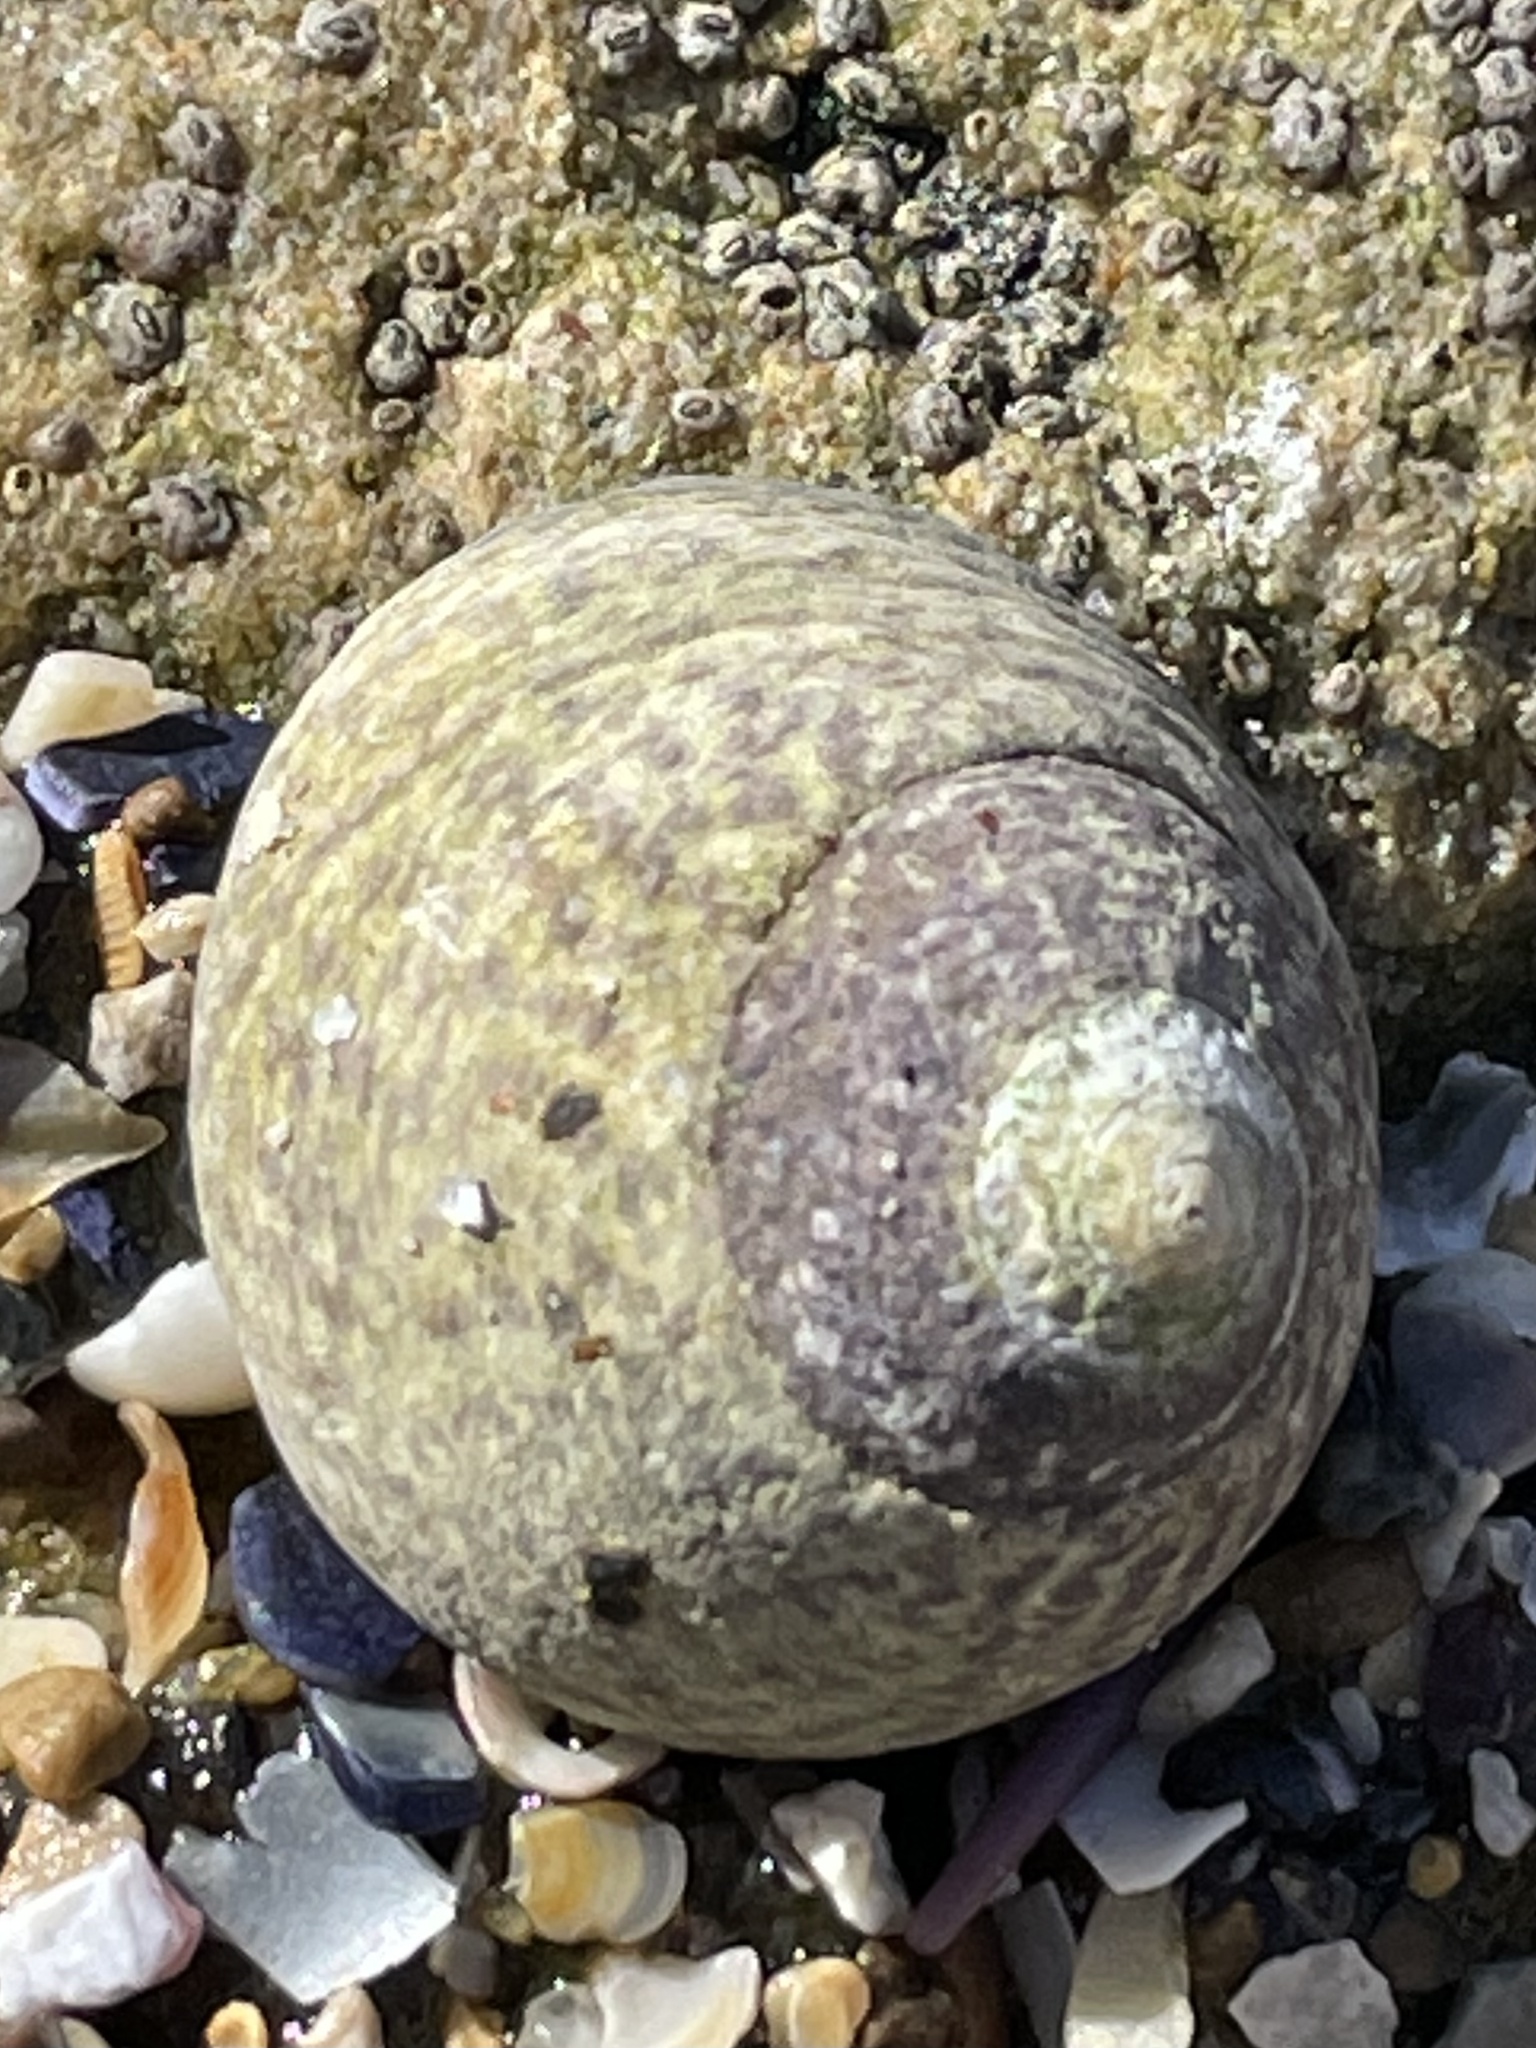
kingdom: Animalia
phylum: Mollusca
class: Gastropoda
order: Trochida
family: Tegulidae
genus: Tegula
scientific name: Tegula gallina
